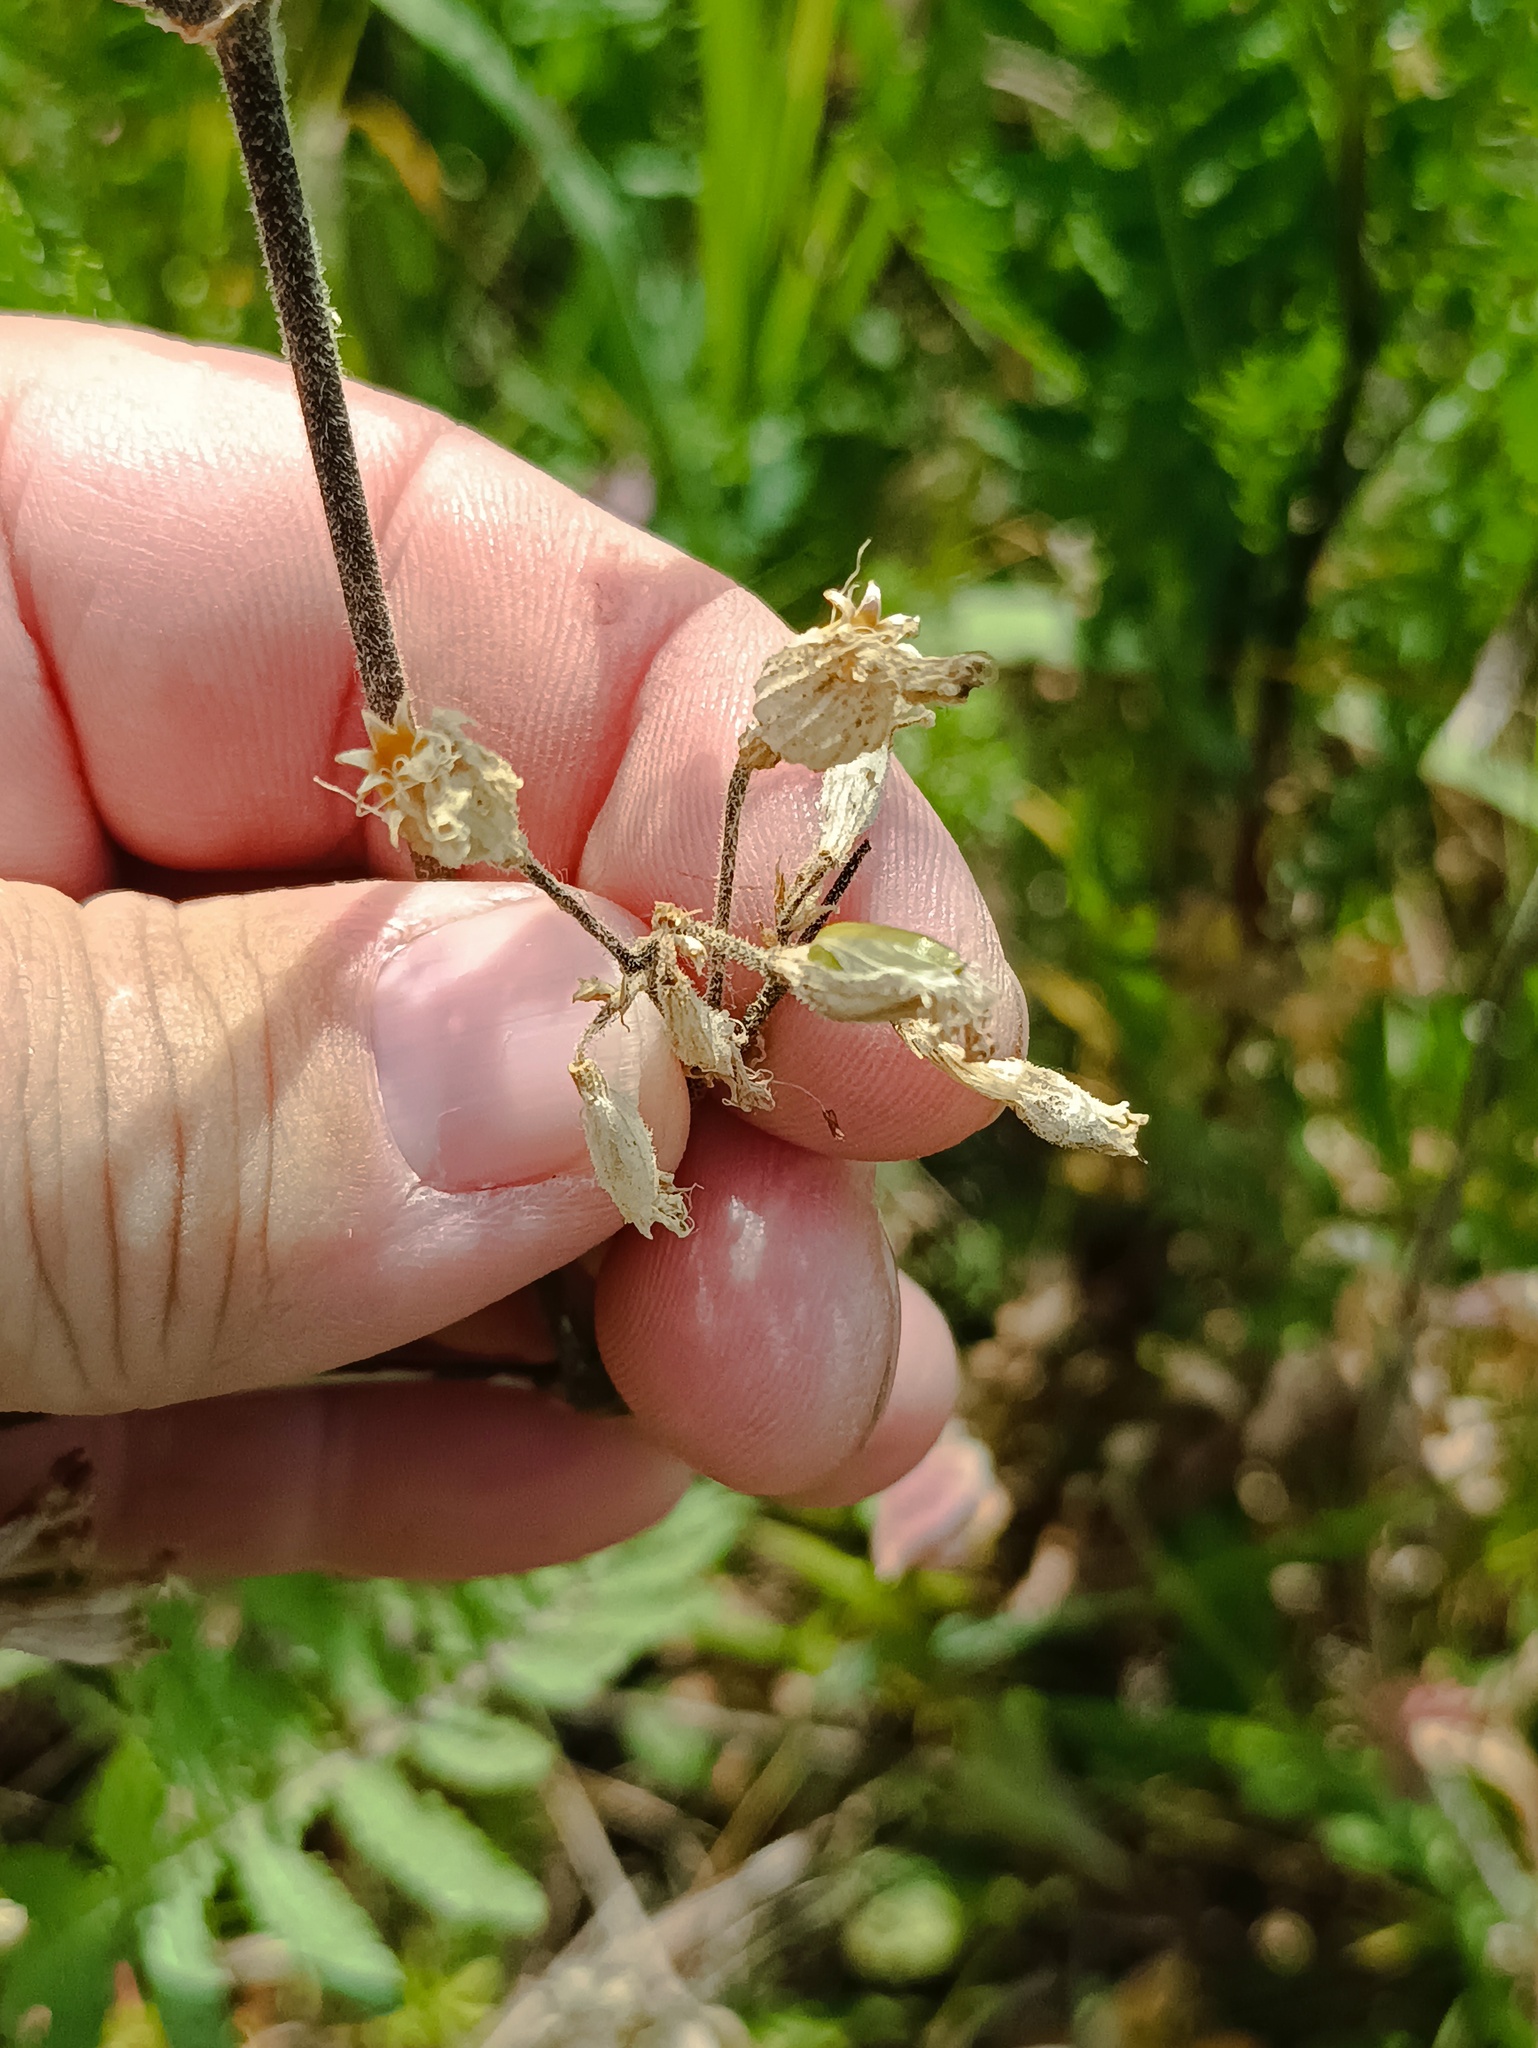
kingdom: Plantae
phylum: Tracheophyta
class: Magnoliopsida
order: Caryophyllales
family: Caryophyllaceae
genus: Silene
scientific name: Silene nutans
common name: Nottingham catchfly
